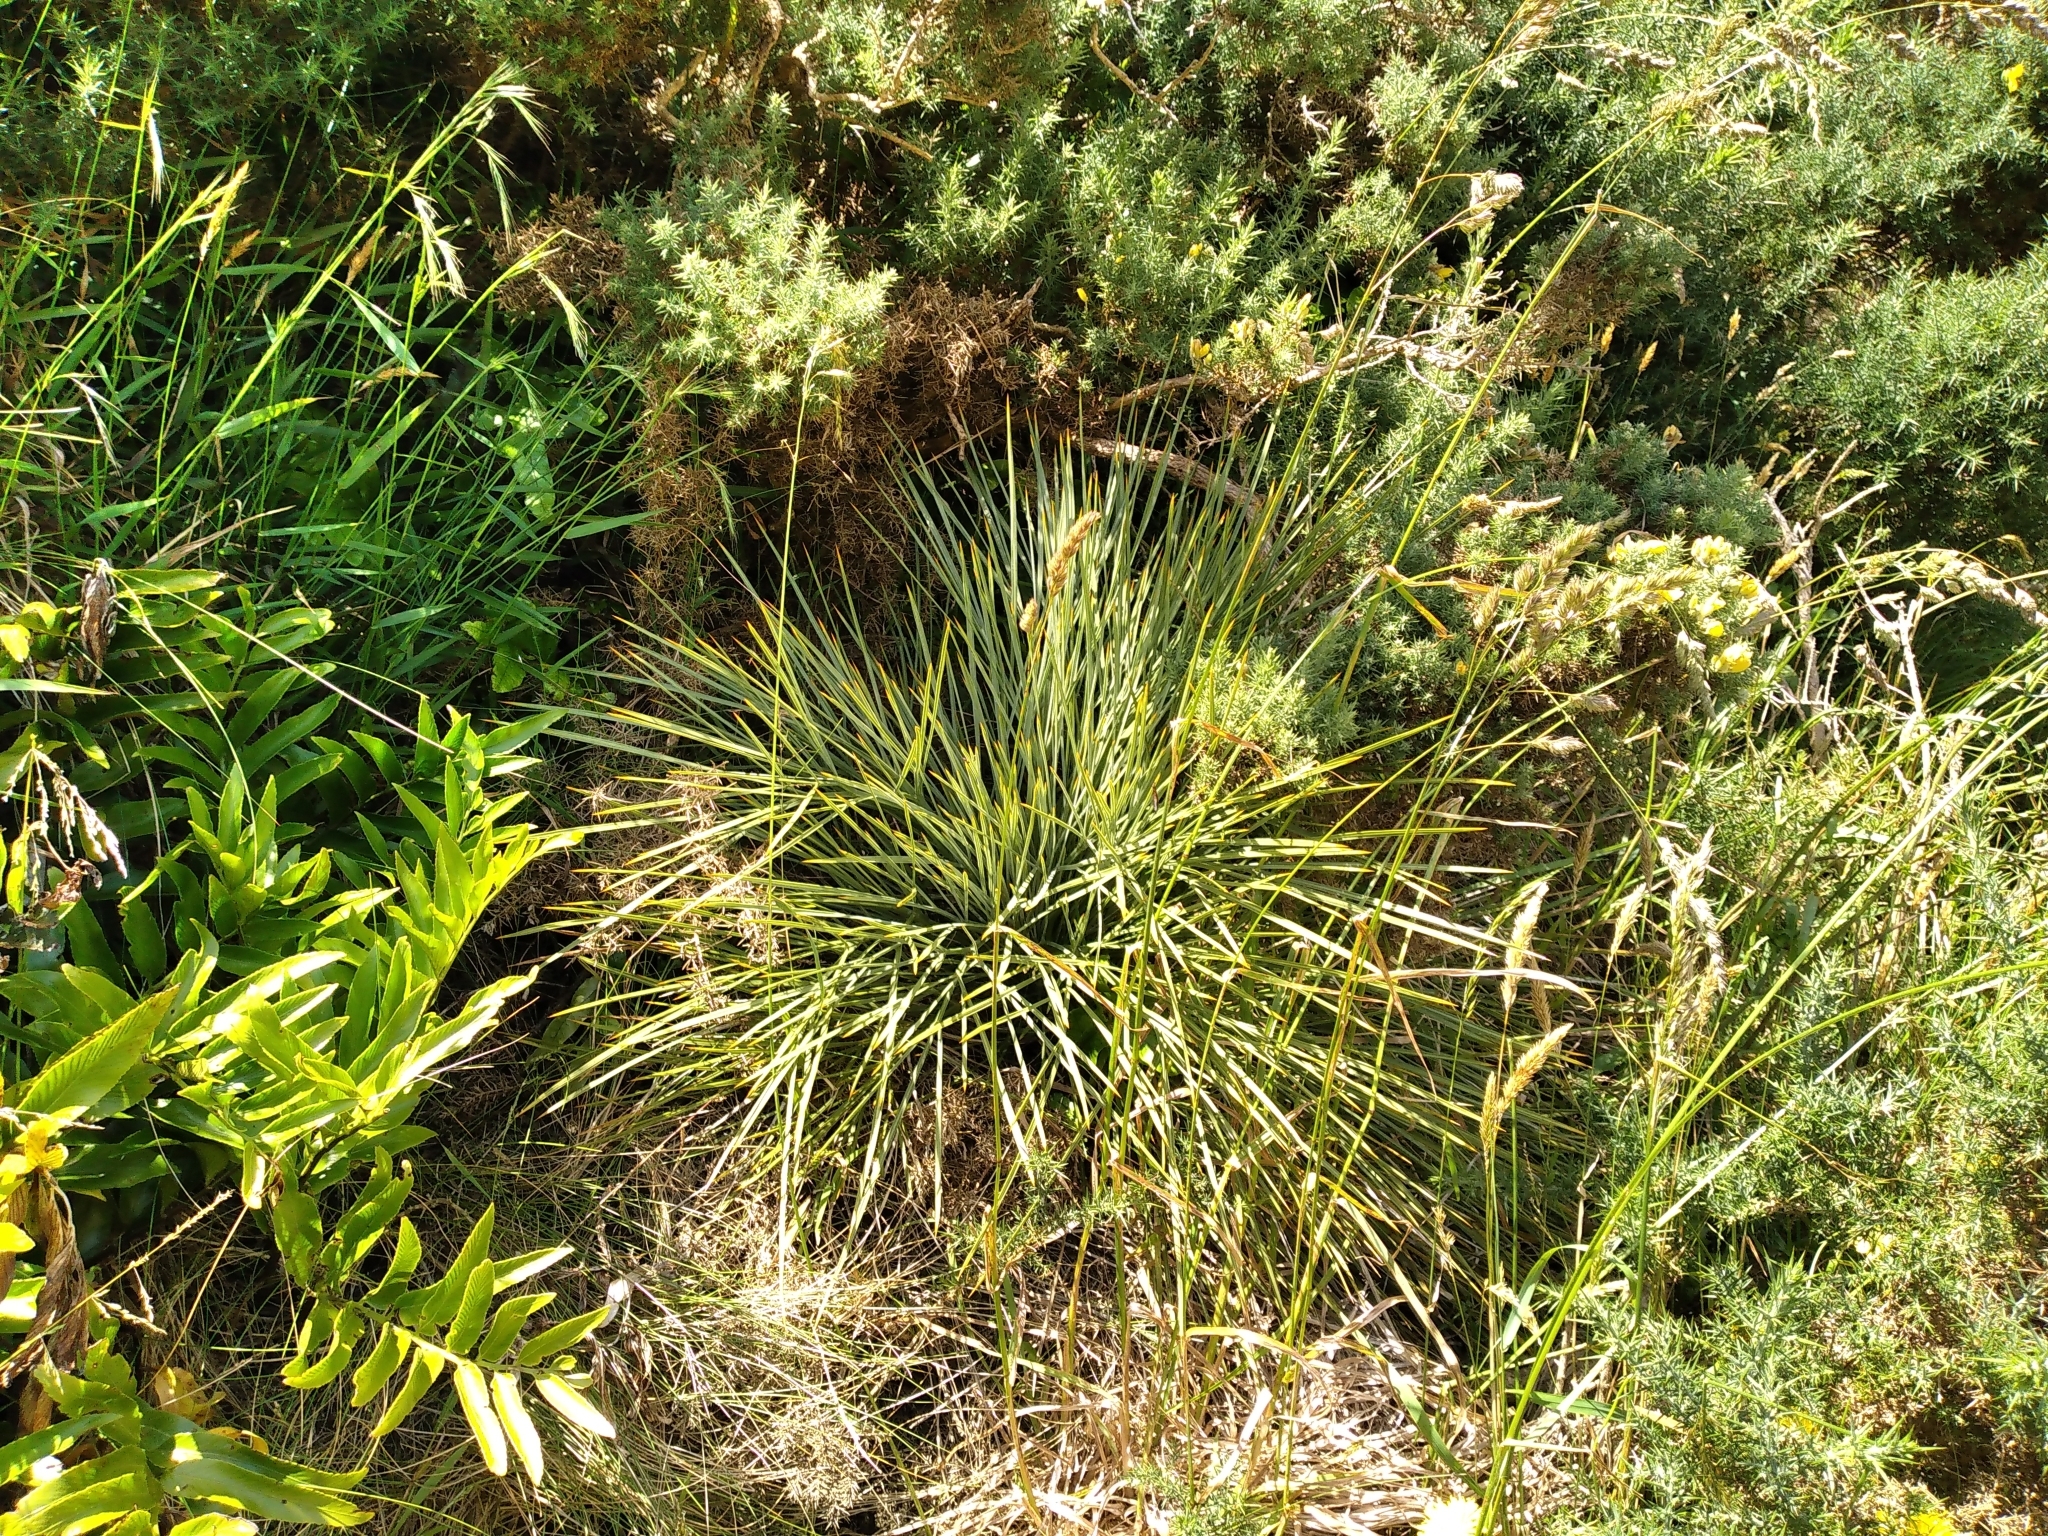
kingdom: Plantae
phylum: Tracheophyta
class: Magnoliopsida
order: Apiales
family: Apiaceae
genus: Aciphylla
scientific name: Aciphylla squarrosa
